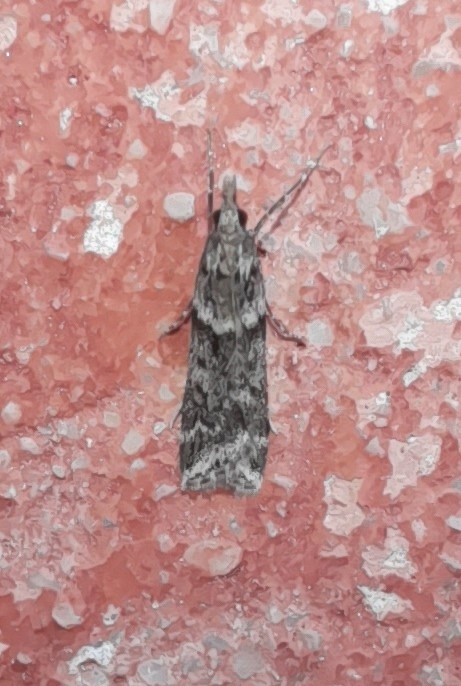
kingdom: Animalia
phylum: Arthropoda
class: Insecta
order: Lepidoptera
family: Crambidae
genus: Eudonia
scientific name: Eudonia angustea
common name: Narrow-winged grey
